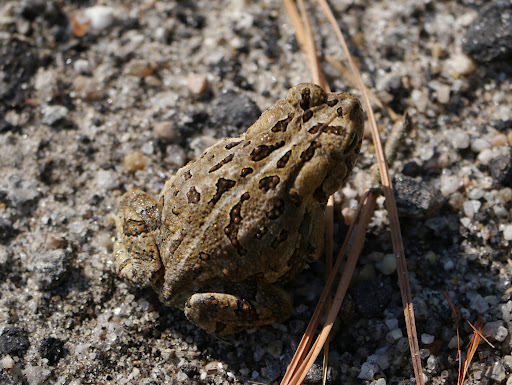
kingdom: Animalia
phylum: Chordata
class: Amphibia
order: Anura
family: Bufonidae
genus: Anaxyrus
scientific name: Anaxyrus fowleri
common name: Fowler's toad
